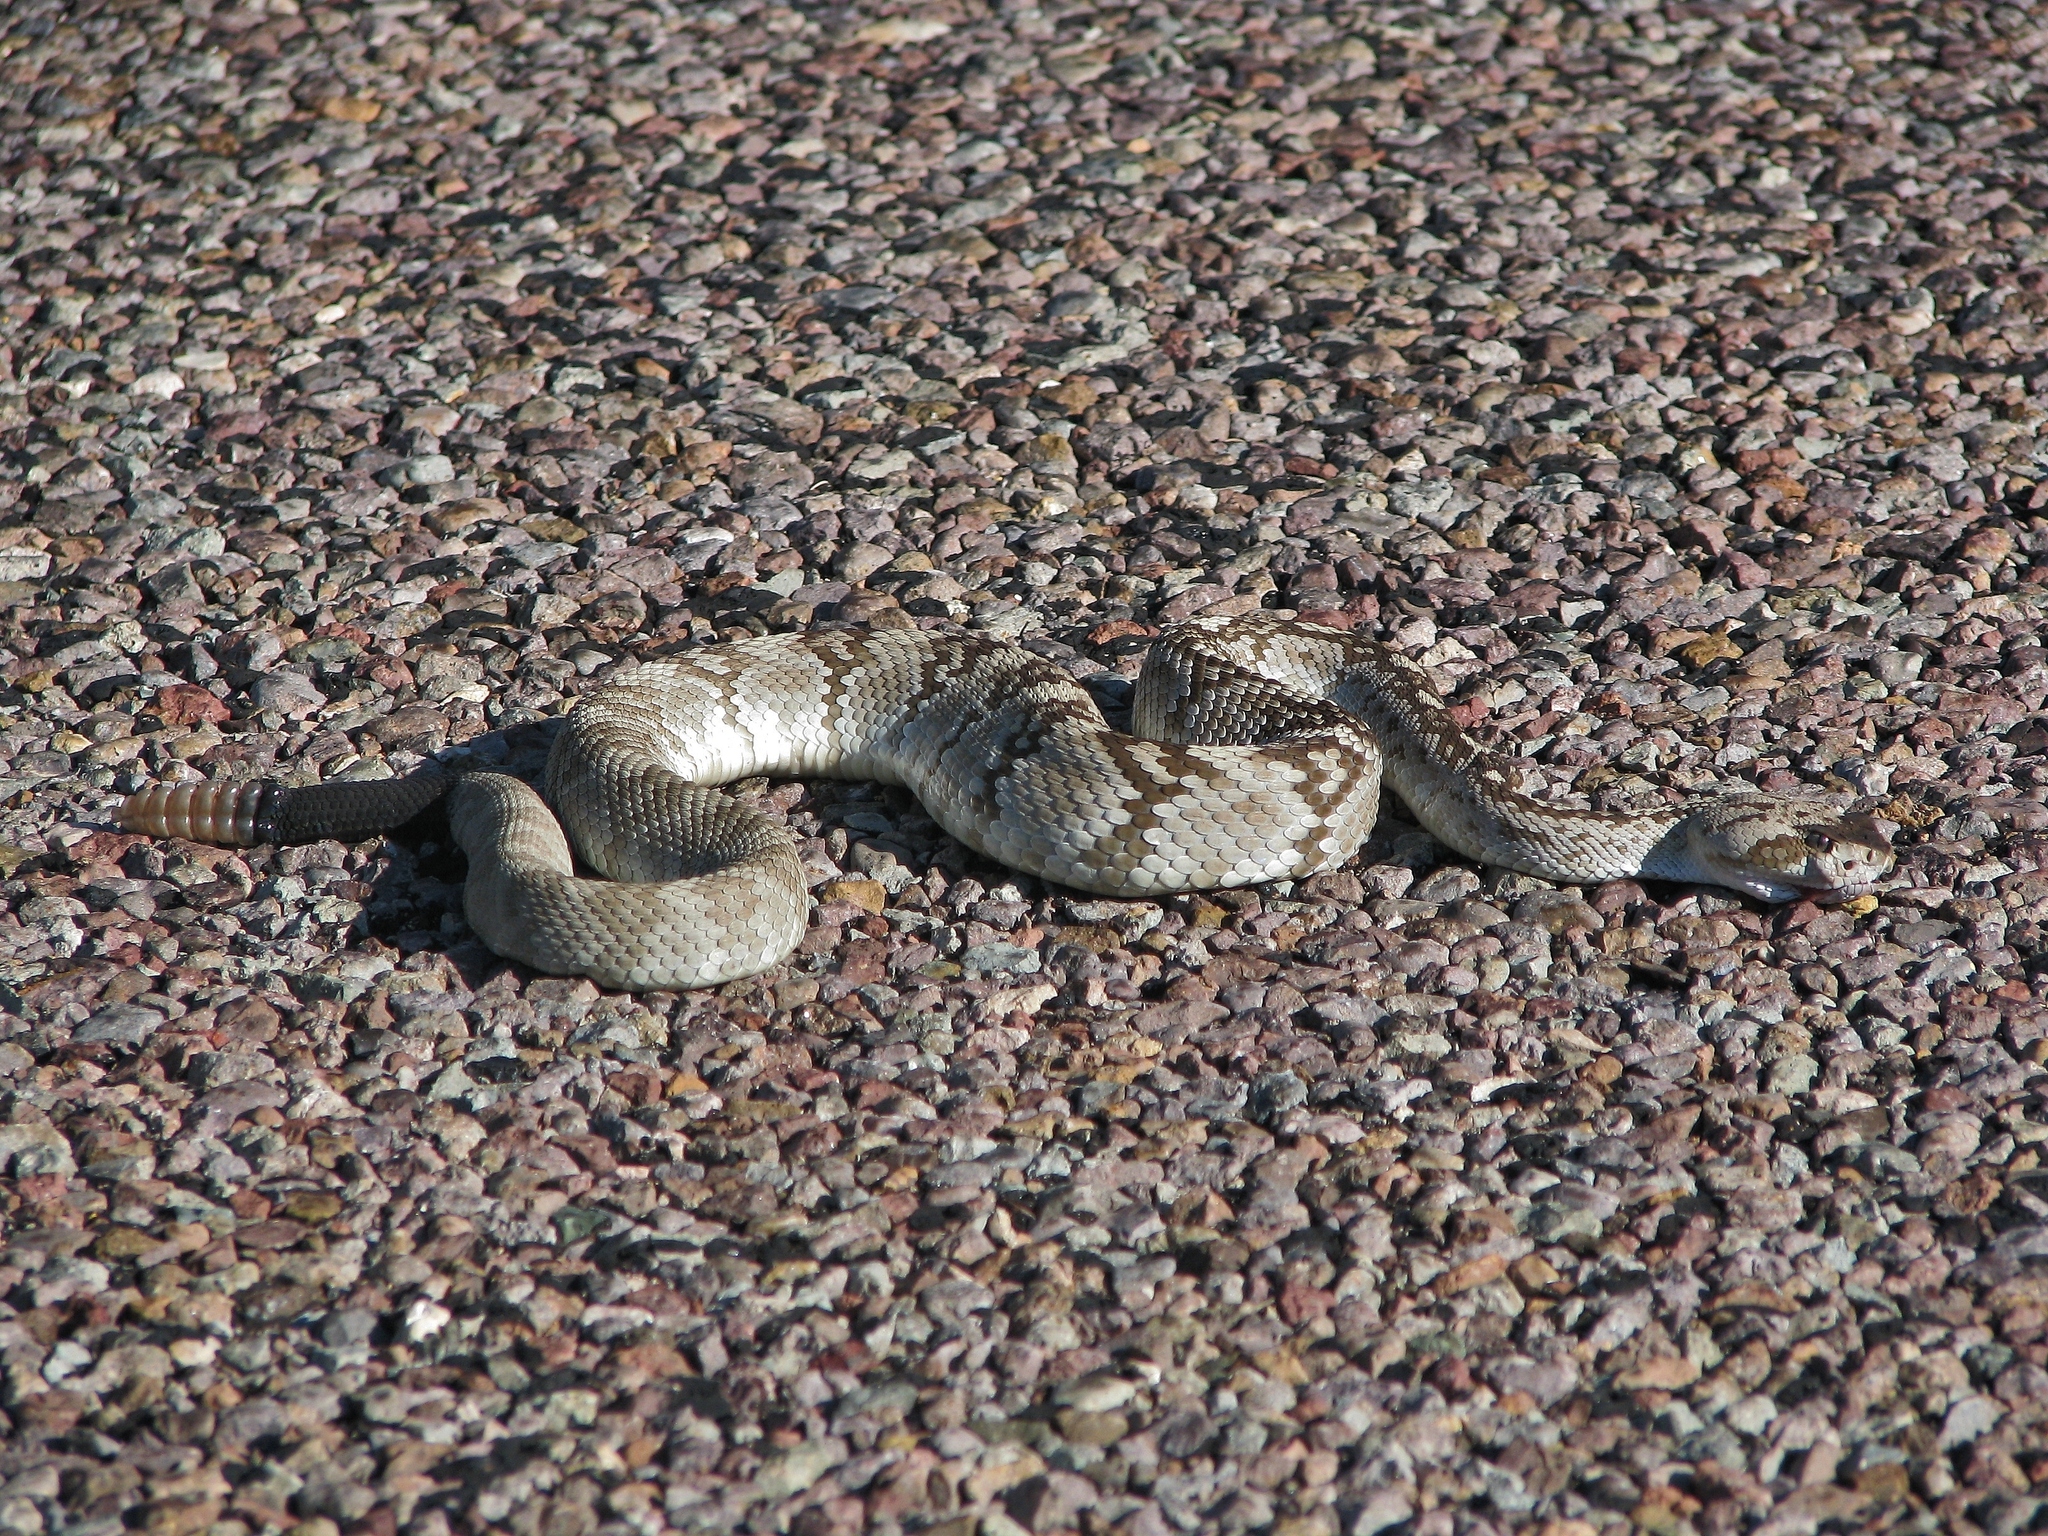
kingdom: Animalia
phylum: Chordata
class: Squamata
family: Viperidae
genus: Crotalus
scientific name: Crotalus ornatus
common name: Black-tailed rattlesnake
